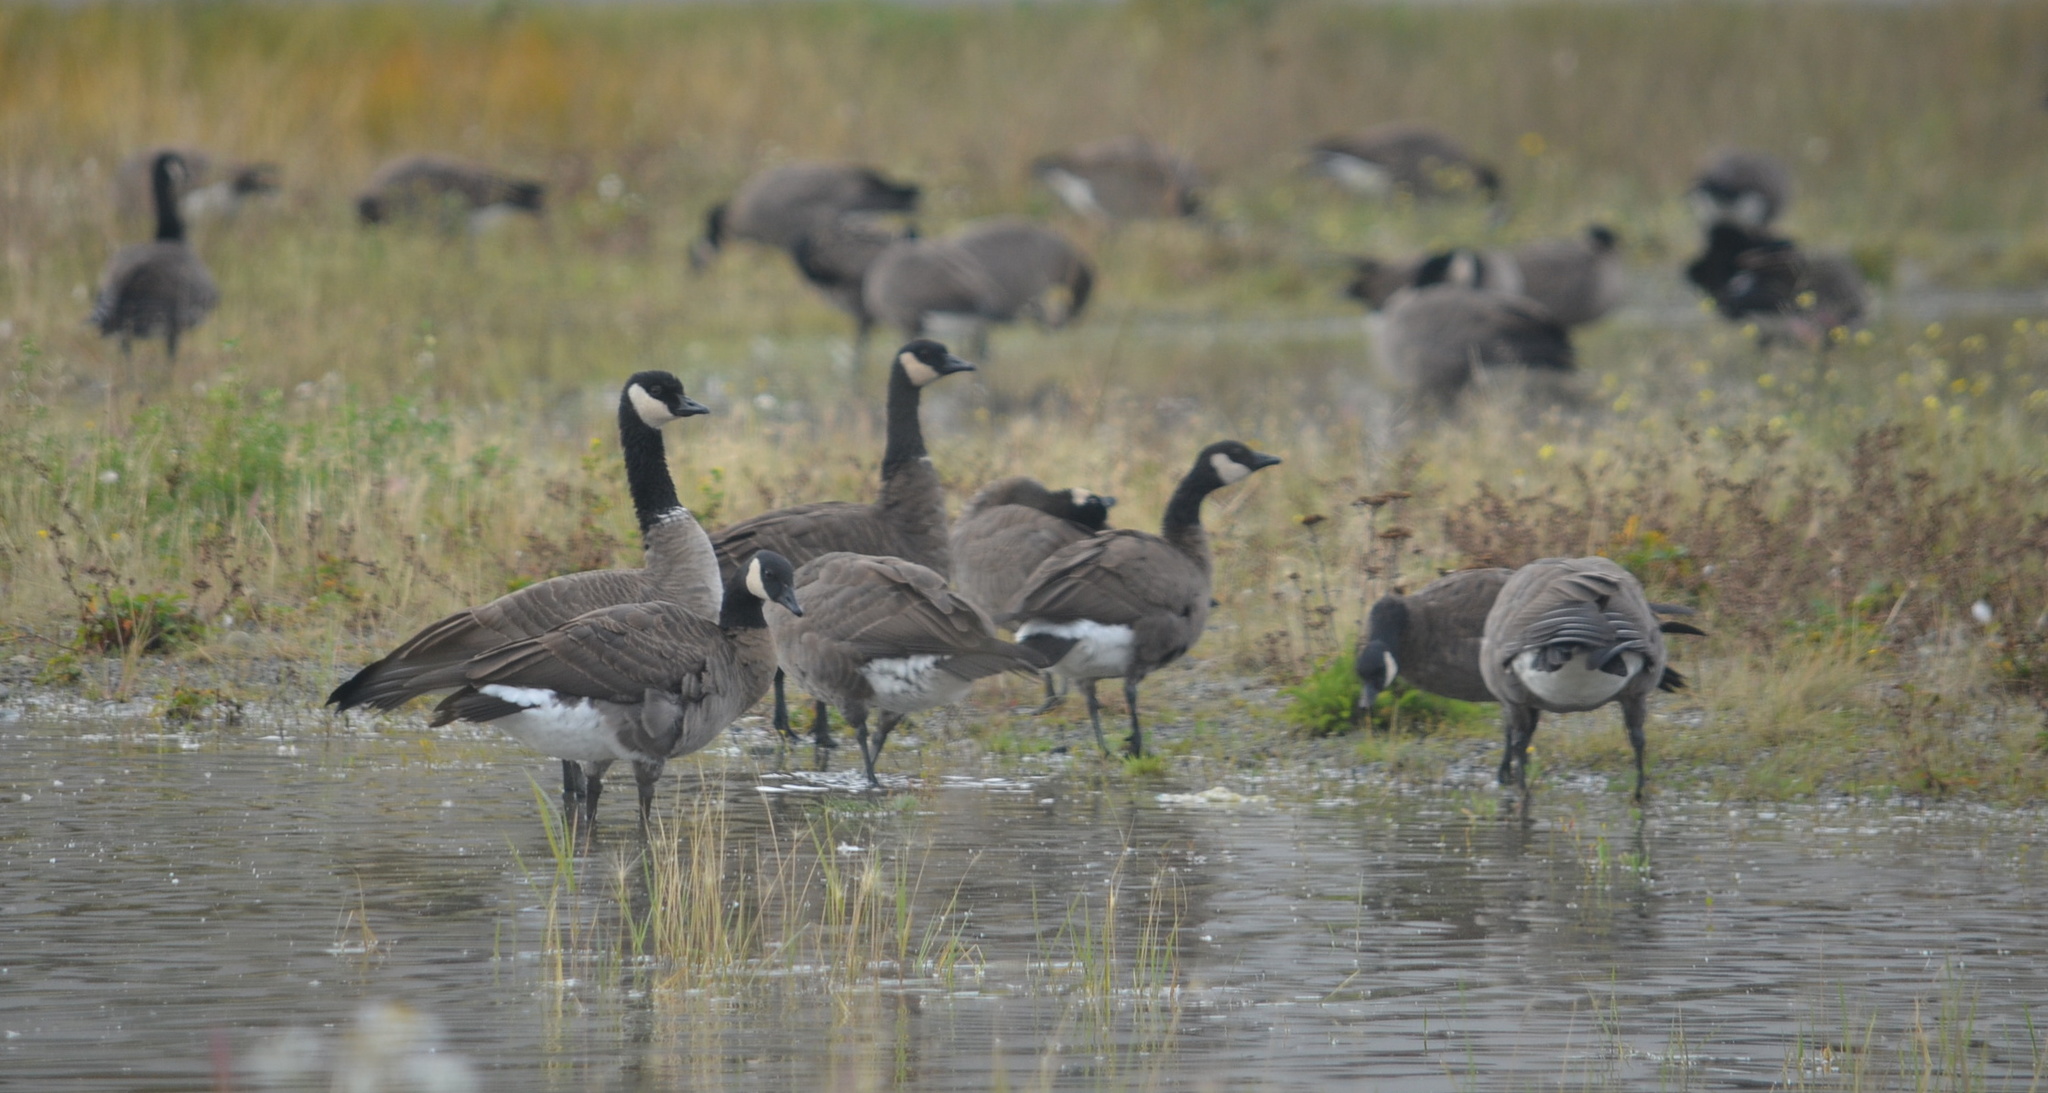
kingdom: Animalia
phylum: Chordata
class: Aves
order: Anseriformes
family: Anatidae
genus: Branta
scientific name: Branta canadensis
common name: Canada goose
